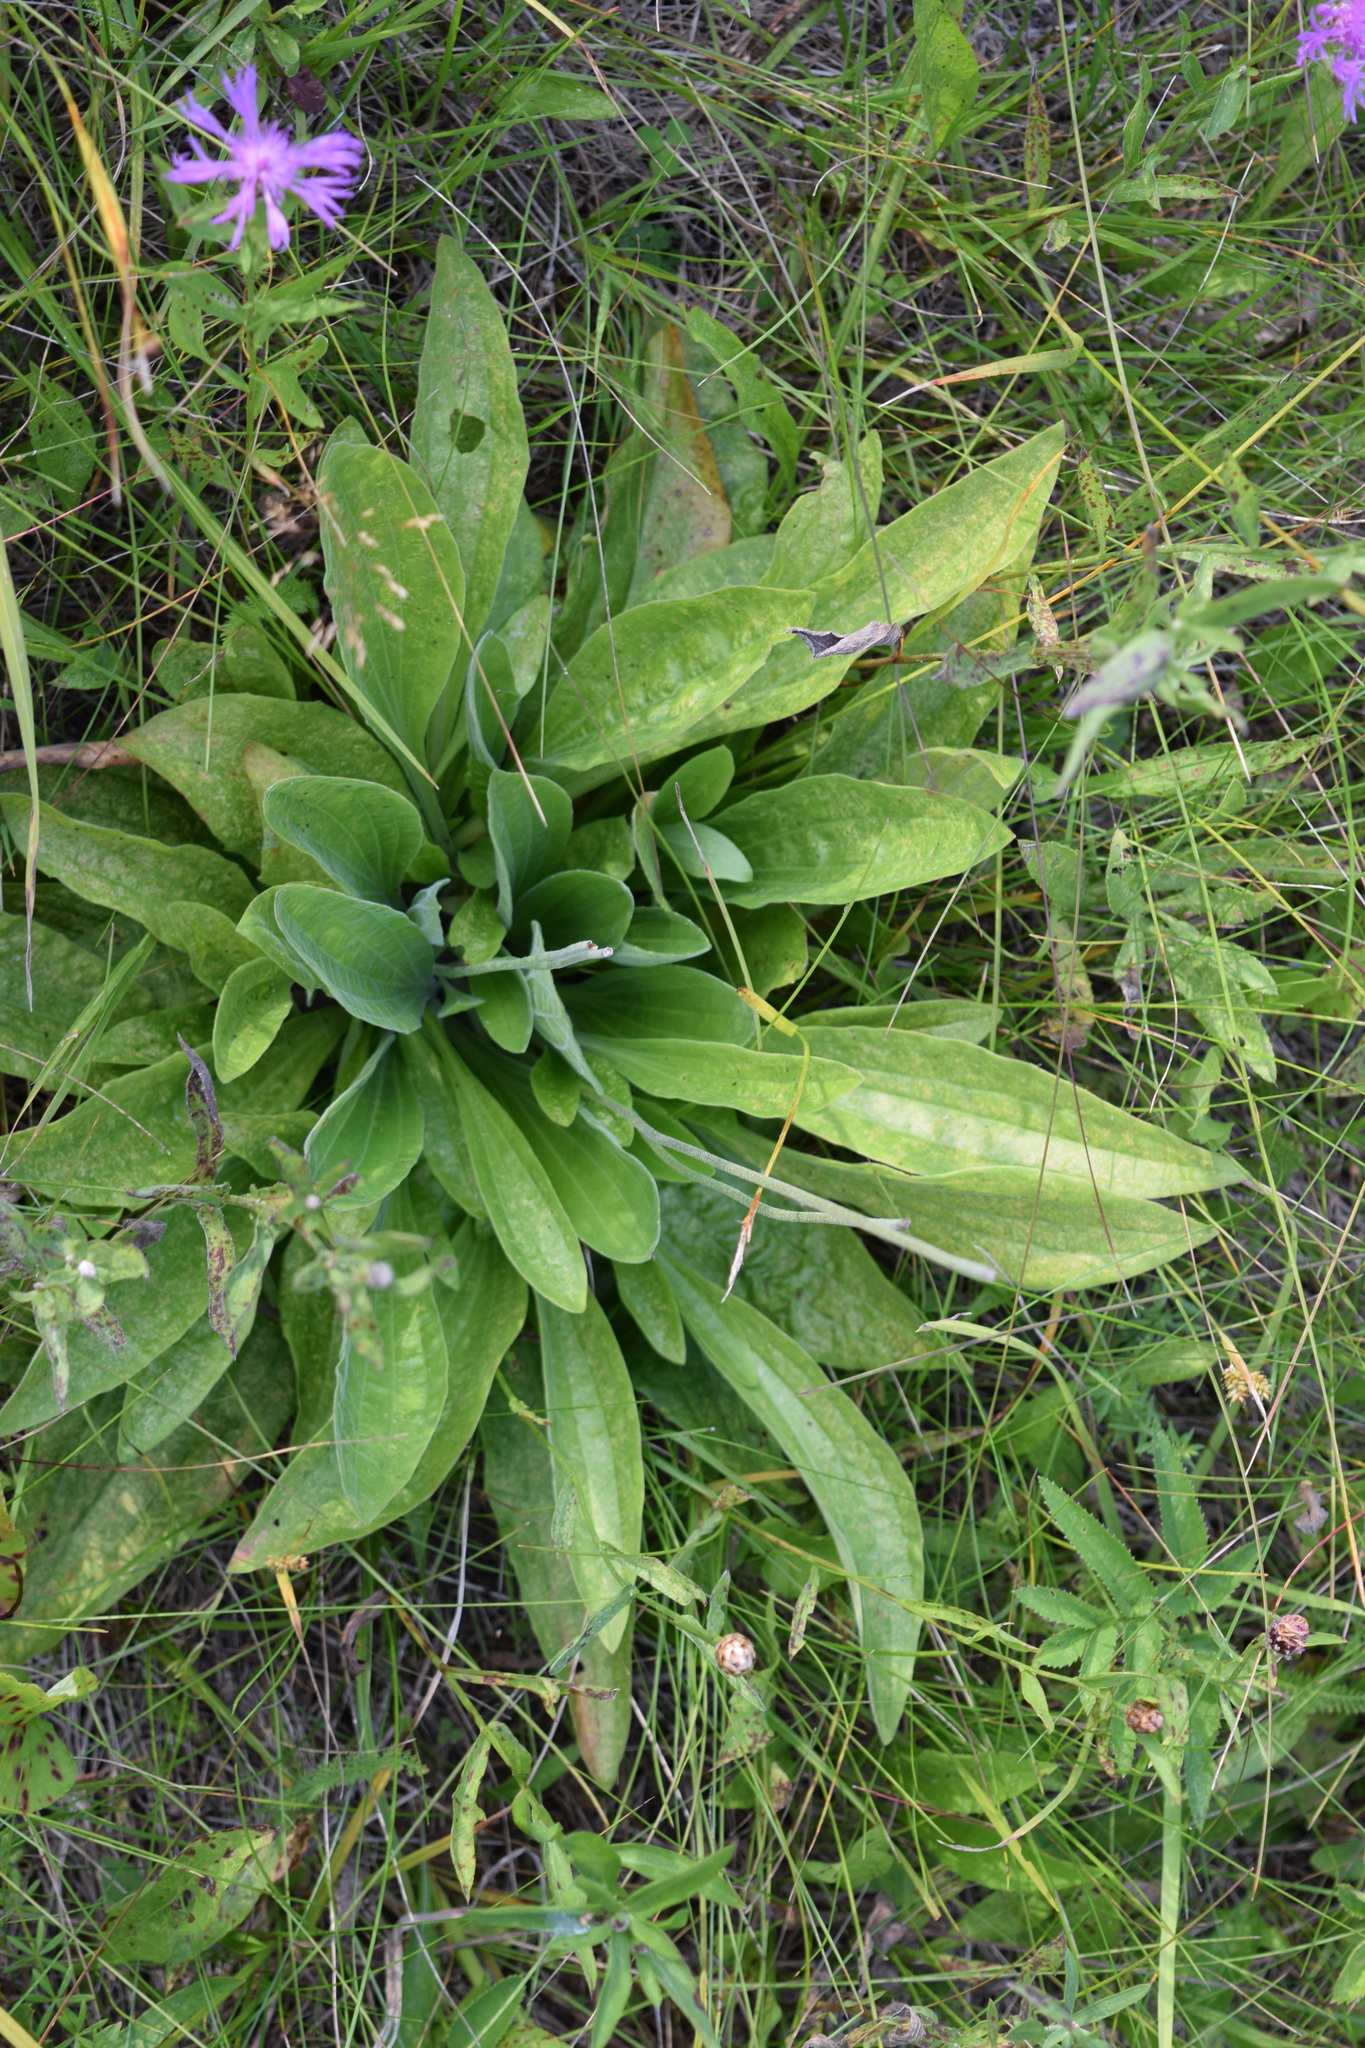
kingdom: Plantae
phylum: Tracheophyta
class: Magnoliopsida
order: Lamiales
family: Plantaginaceae
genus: Plantago
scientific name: Plantago urvillei
